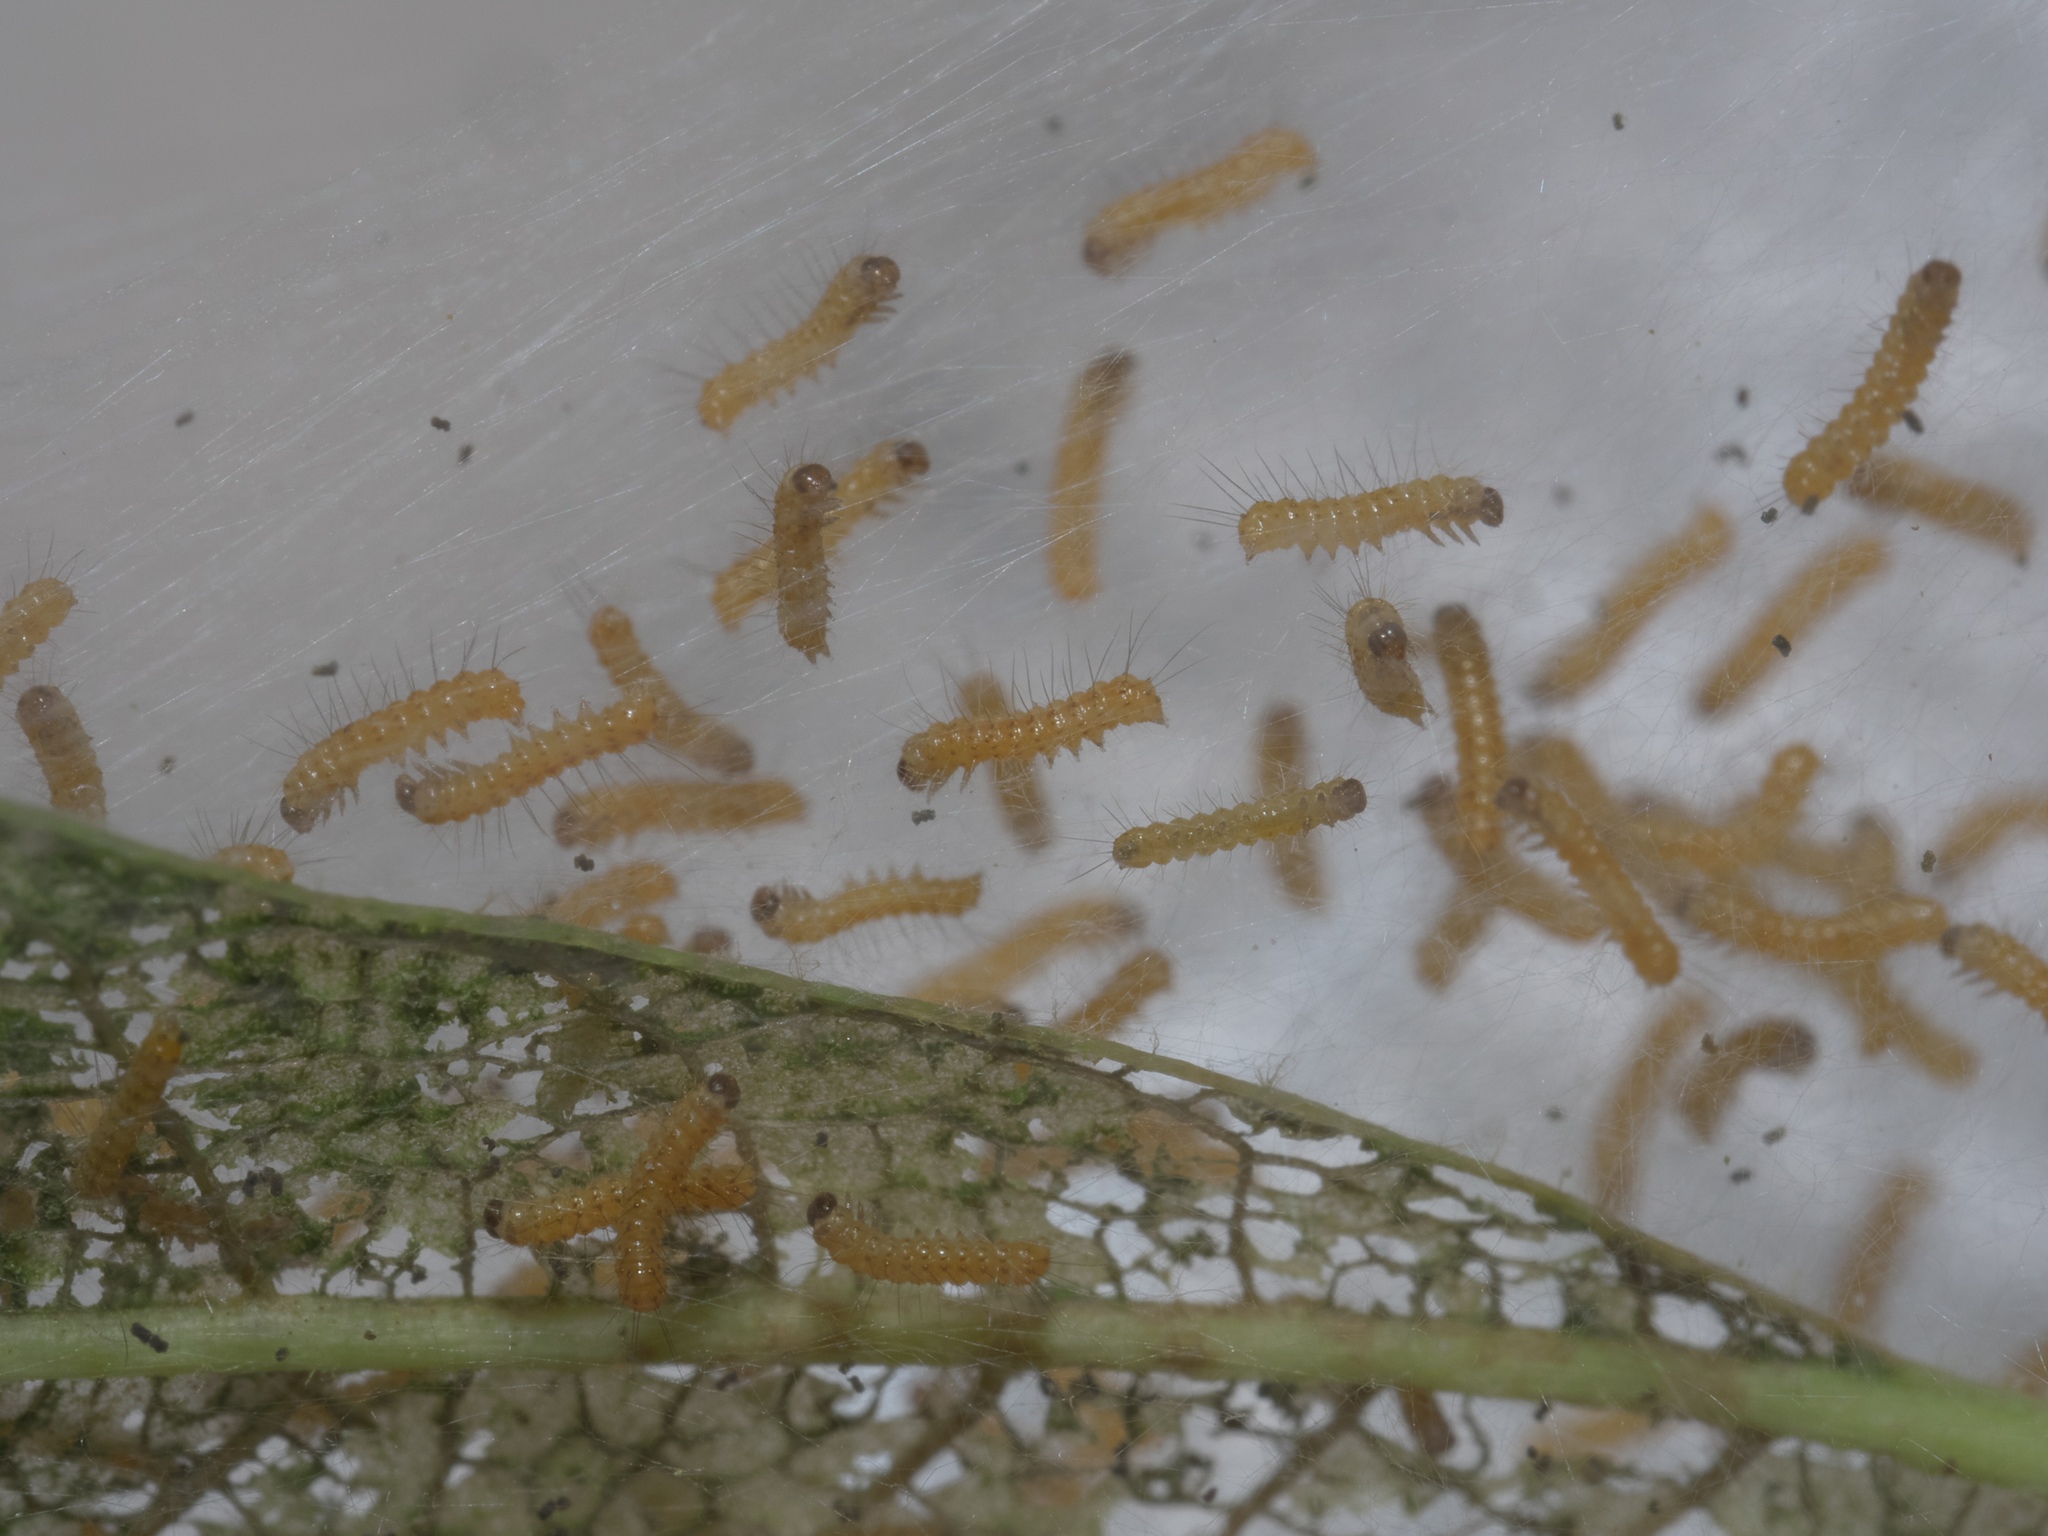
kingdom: Animalia
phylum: Arthropoda
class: Insecta
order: Lepidoptera
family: Erebidae
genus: Hyphantria
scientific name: Hyphantria cunea
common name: American white moth
